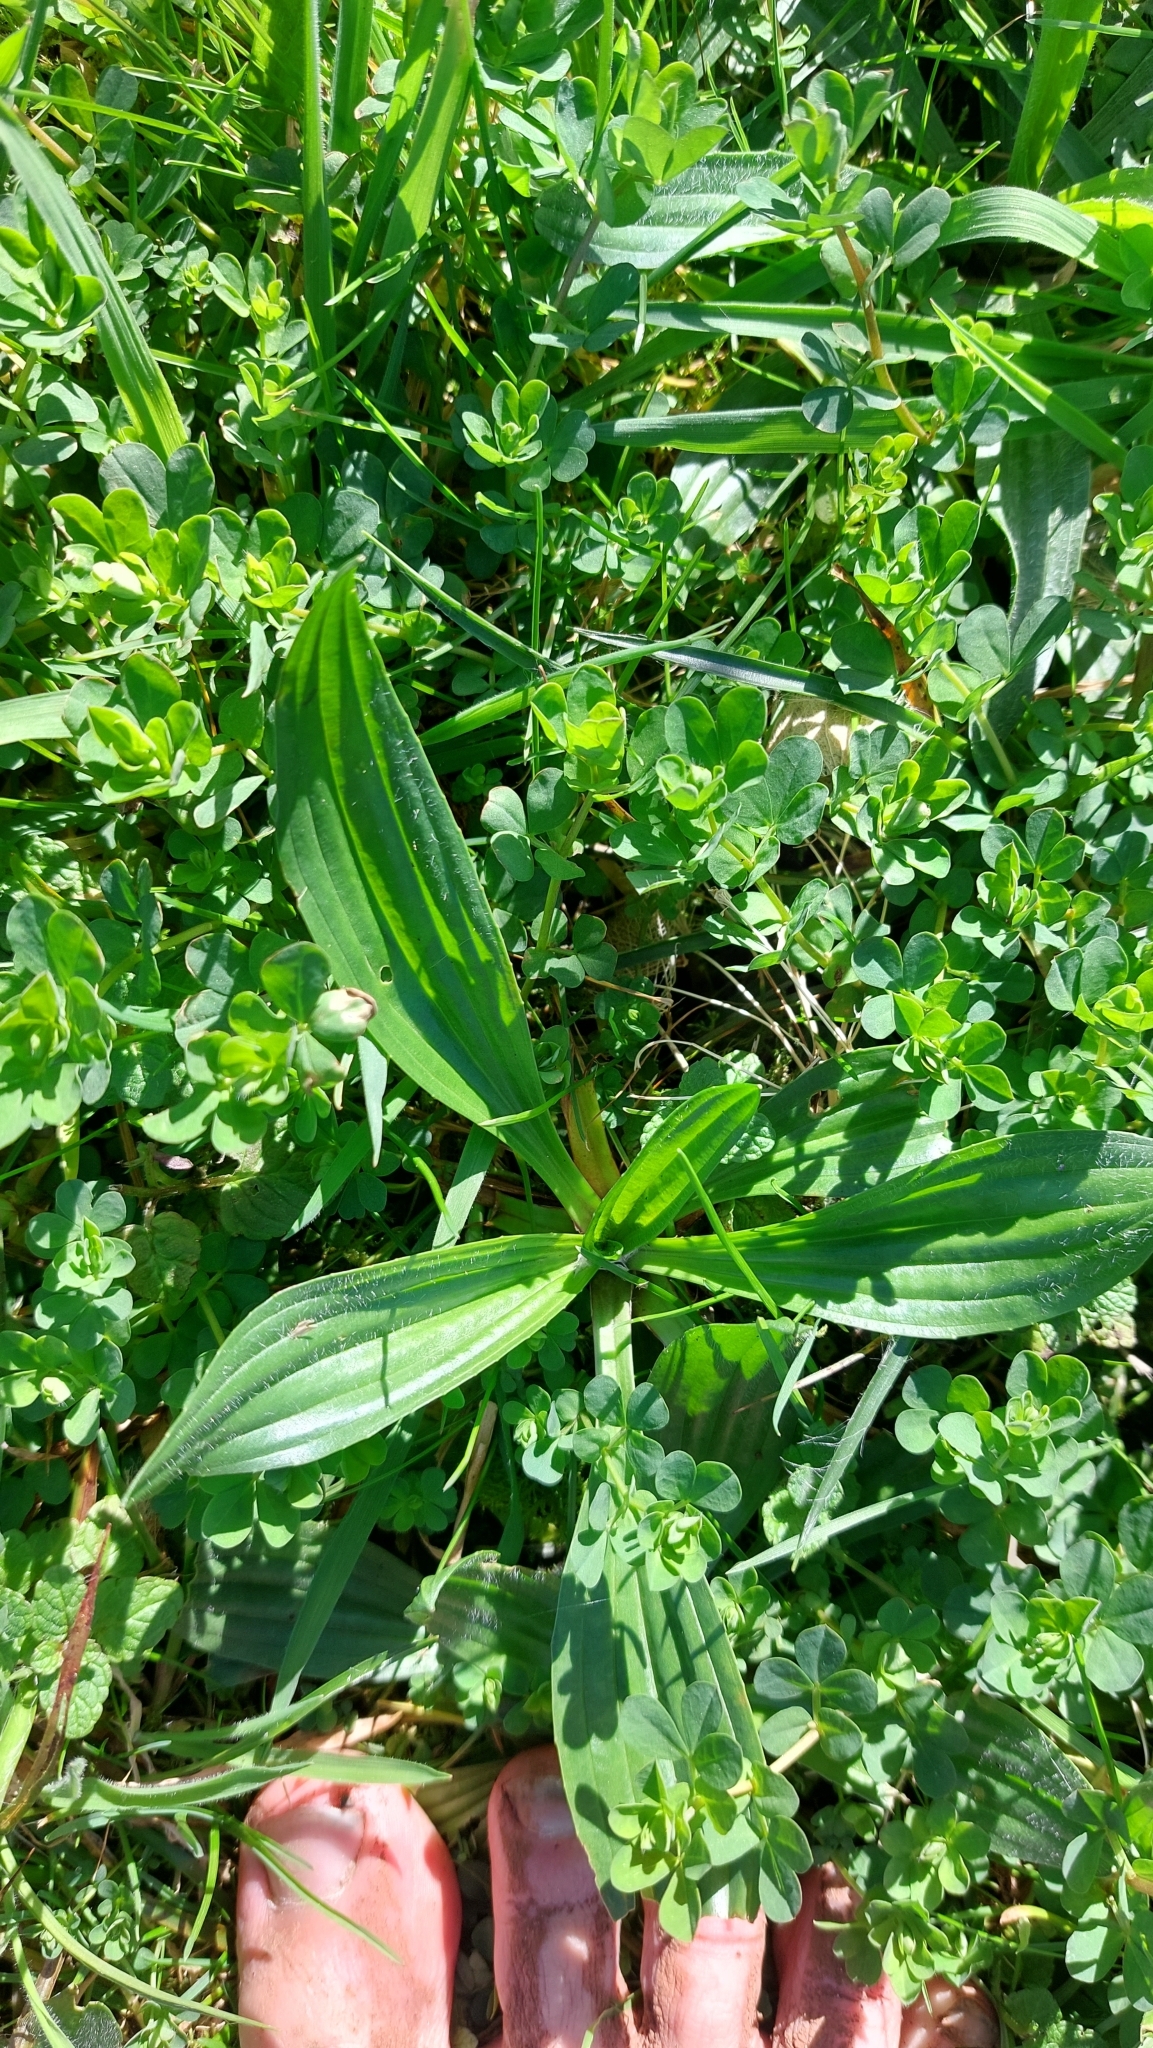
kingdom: Plantae
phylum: Tracheophyta
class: Magnoliopsida
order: Lamiales
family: Plantaginaceae
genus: Plantago
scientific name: Plantago lanceolata
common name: Ribwort plantain
